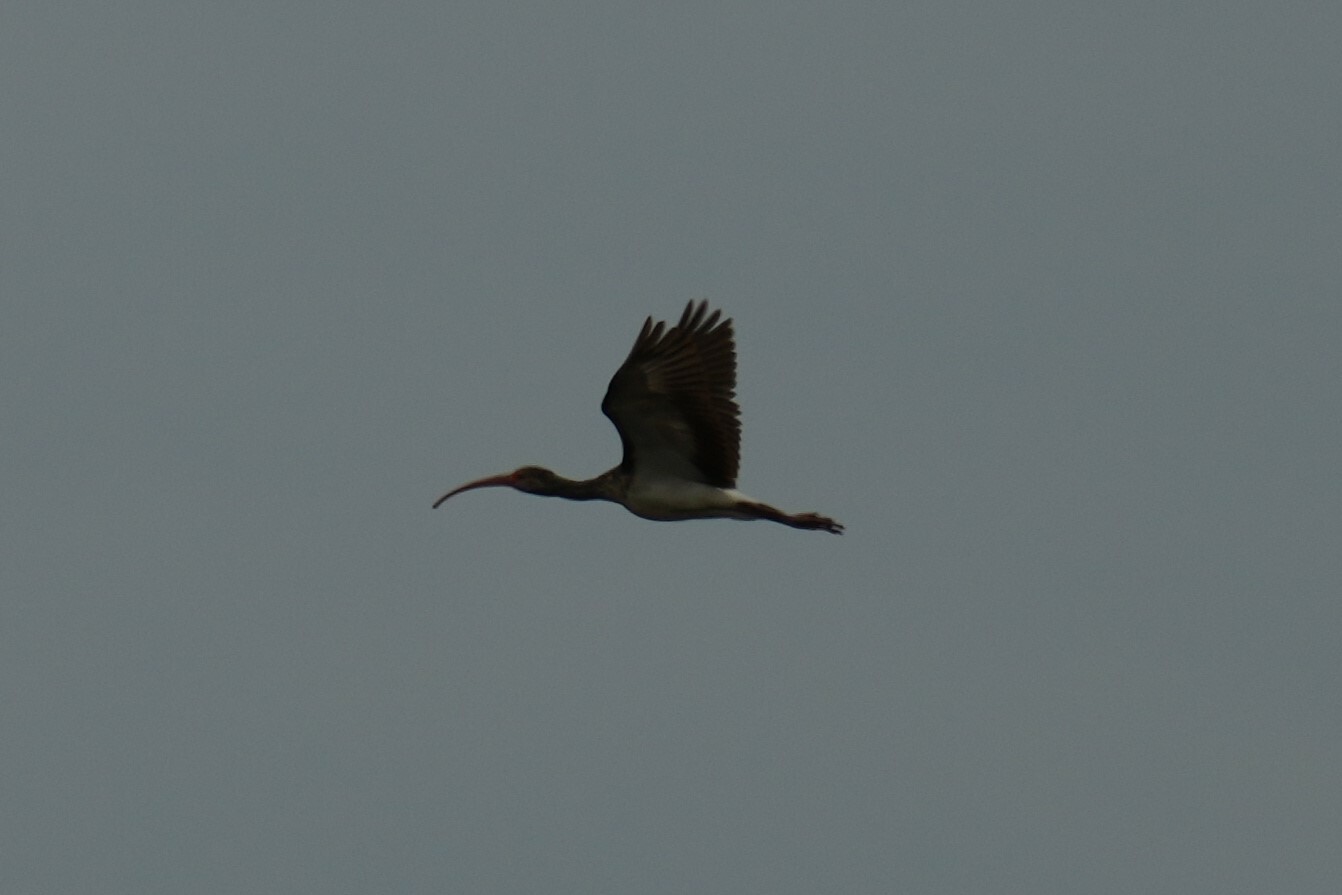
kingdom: Animalia
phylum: Chordata
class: Aves
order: Pelecaniformes
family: Threskiornithidae
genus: Eudocimus
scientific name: Eudocimus albus
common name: White ibis
